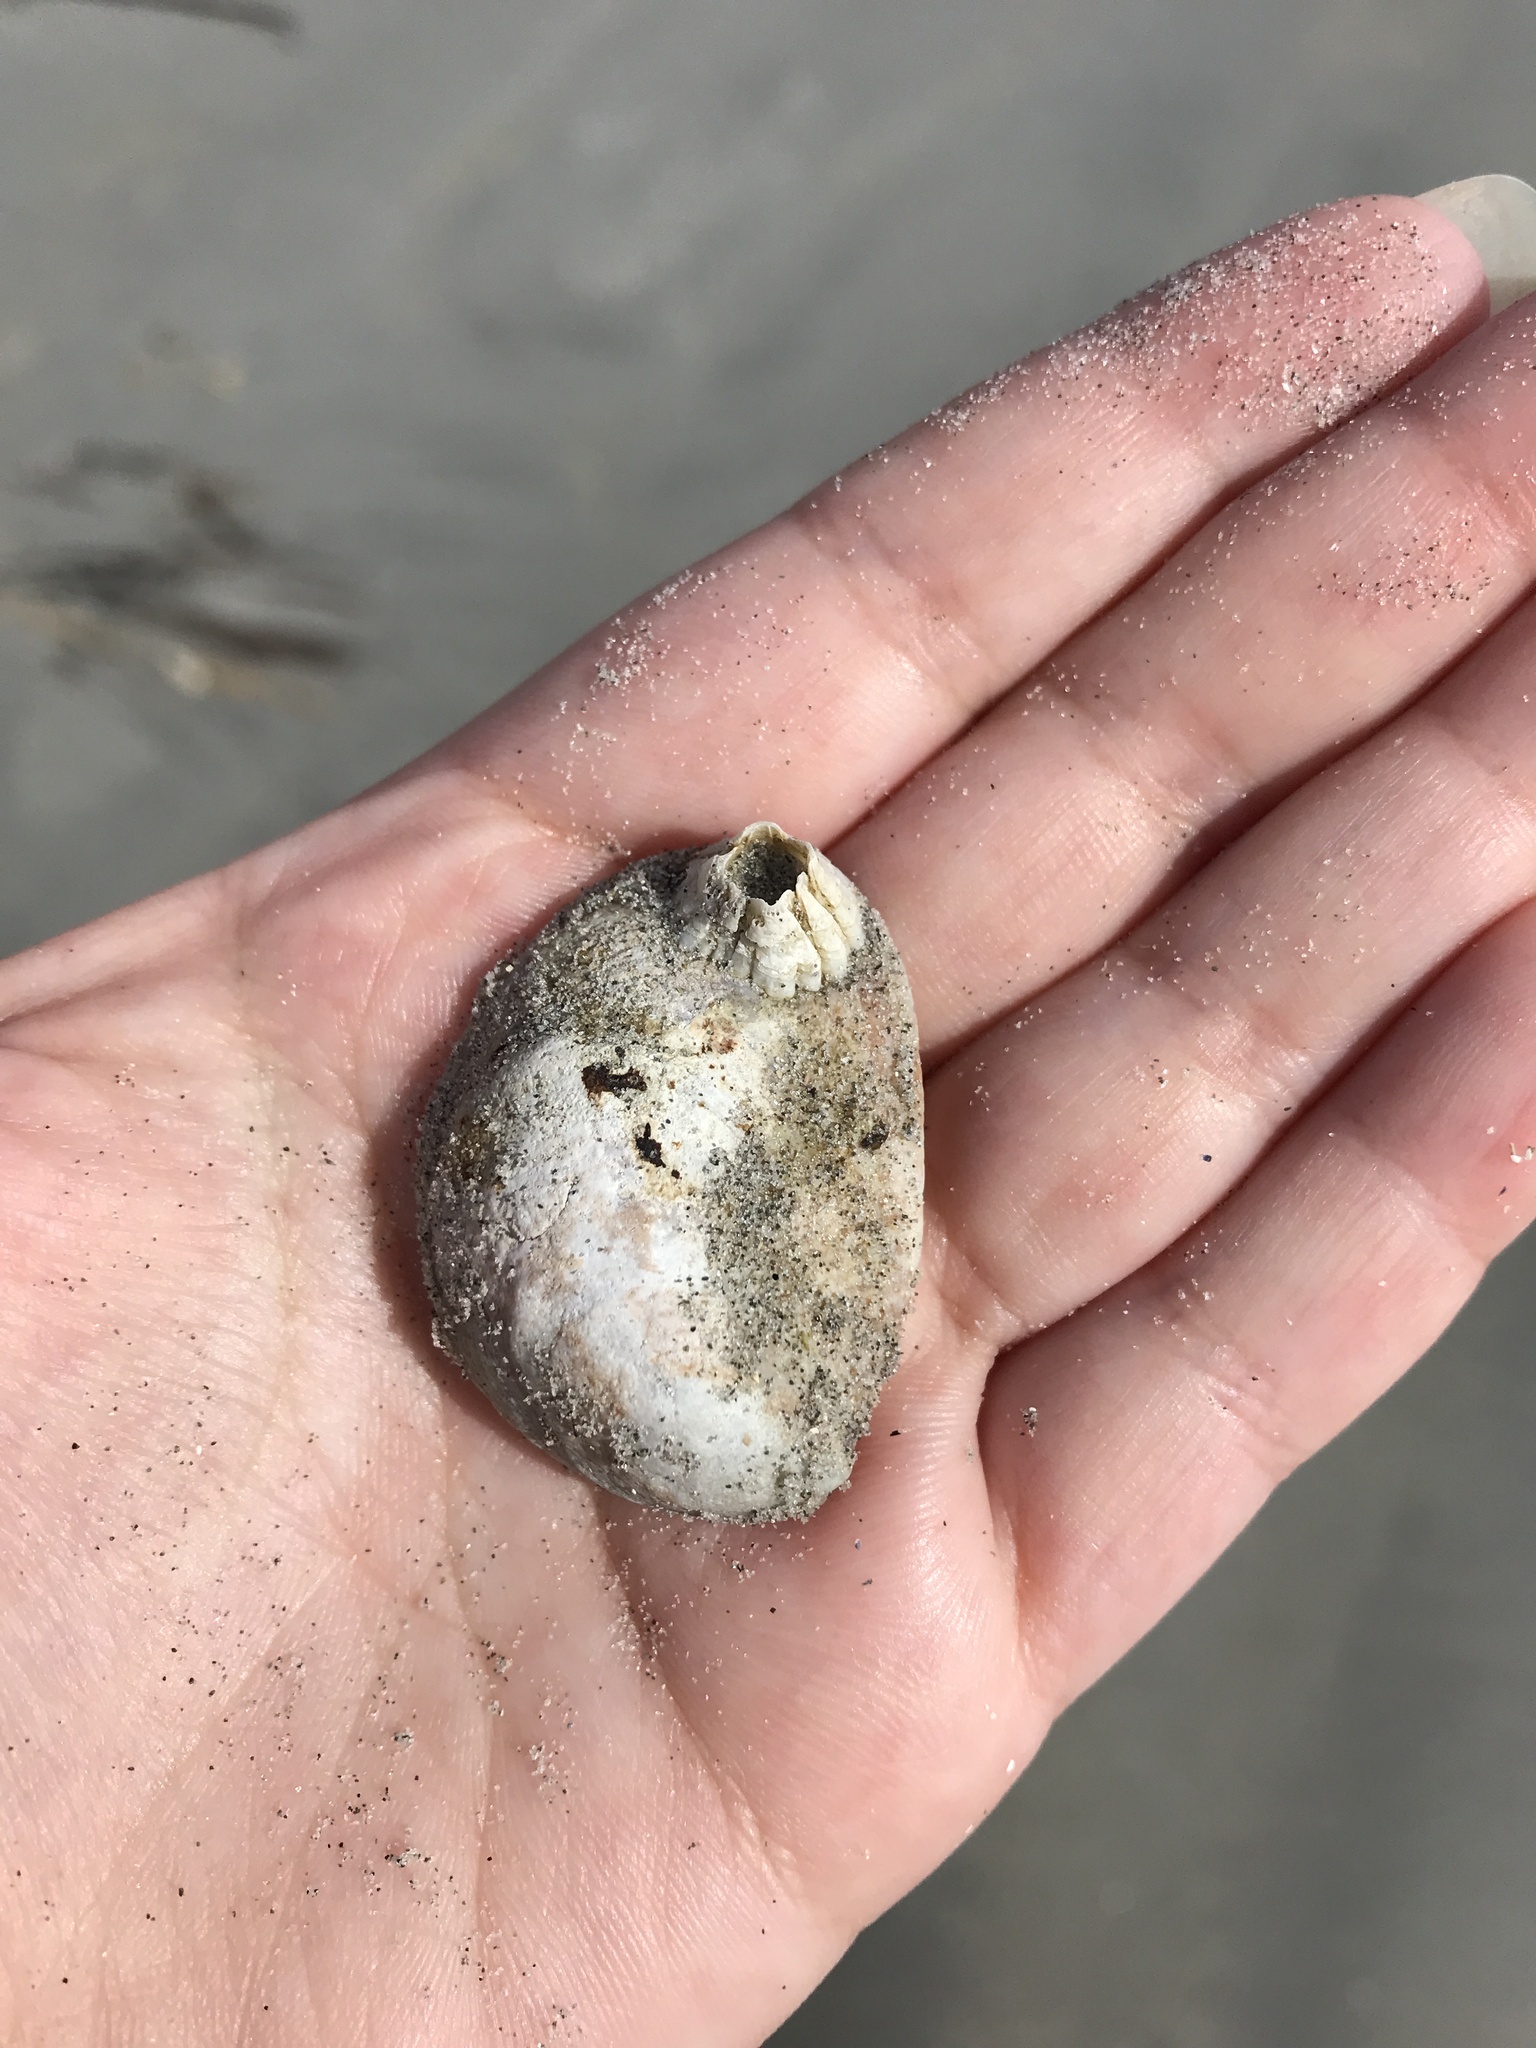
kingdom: Animalia
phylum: Mollusca
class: Gastropoda
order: Littorinimorpha
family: Calyptraeidae
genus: Crepidula
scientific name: Crepidula fornicata
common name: Slipper limpet
